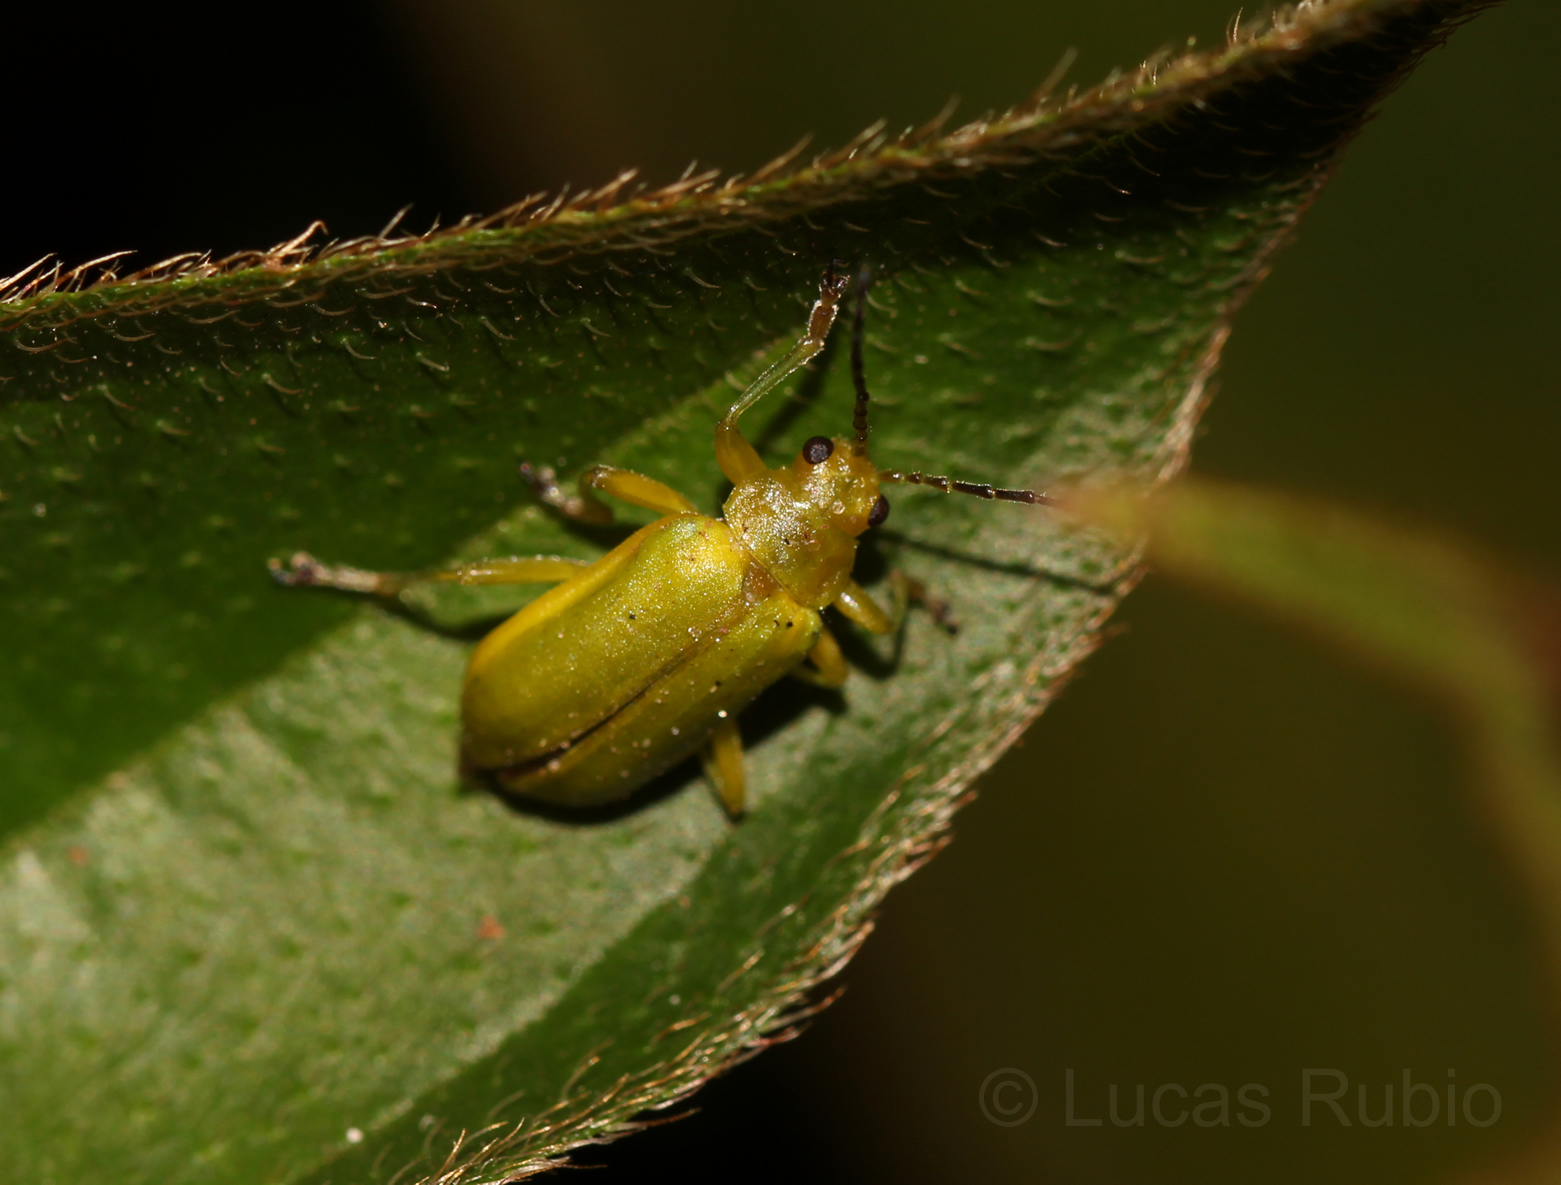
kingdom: Animalia
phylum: Arthropoda
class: Insecta
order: Coleoptera
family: Chrysomelidae
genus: Neolochmaea
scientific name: Neolochmaea
